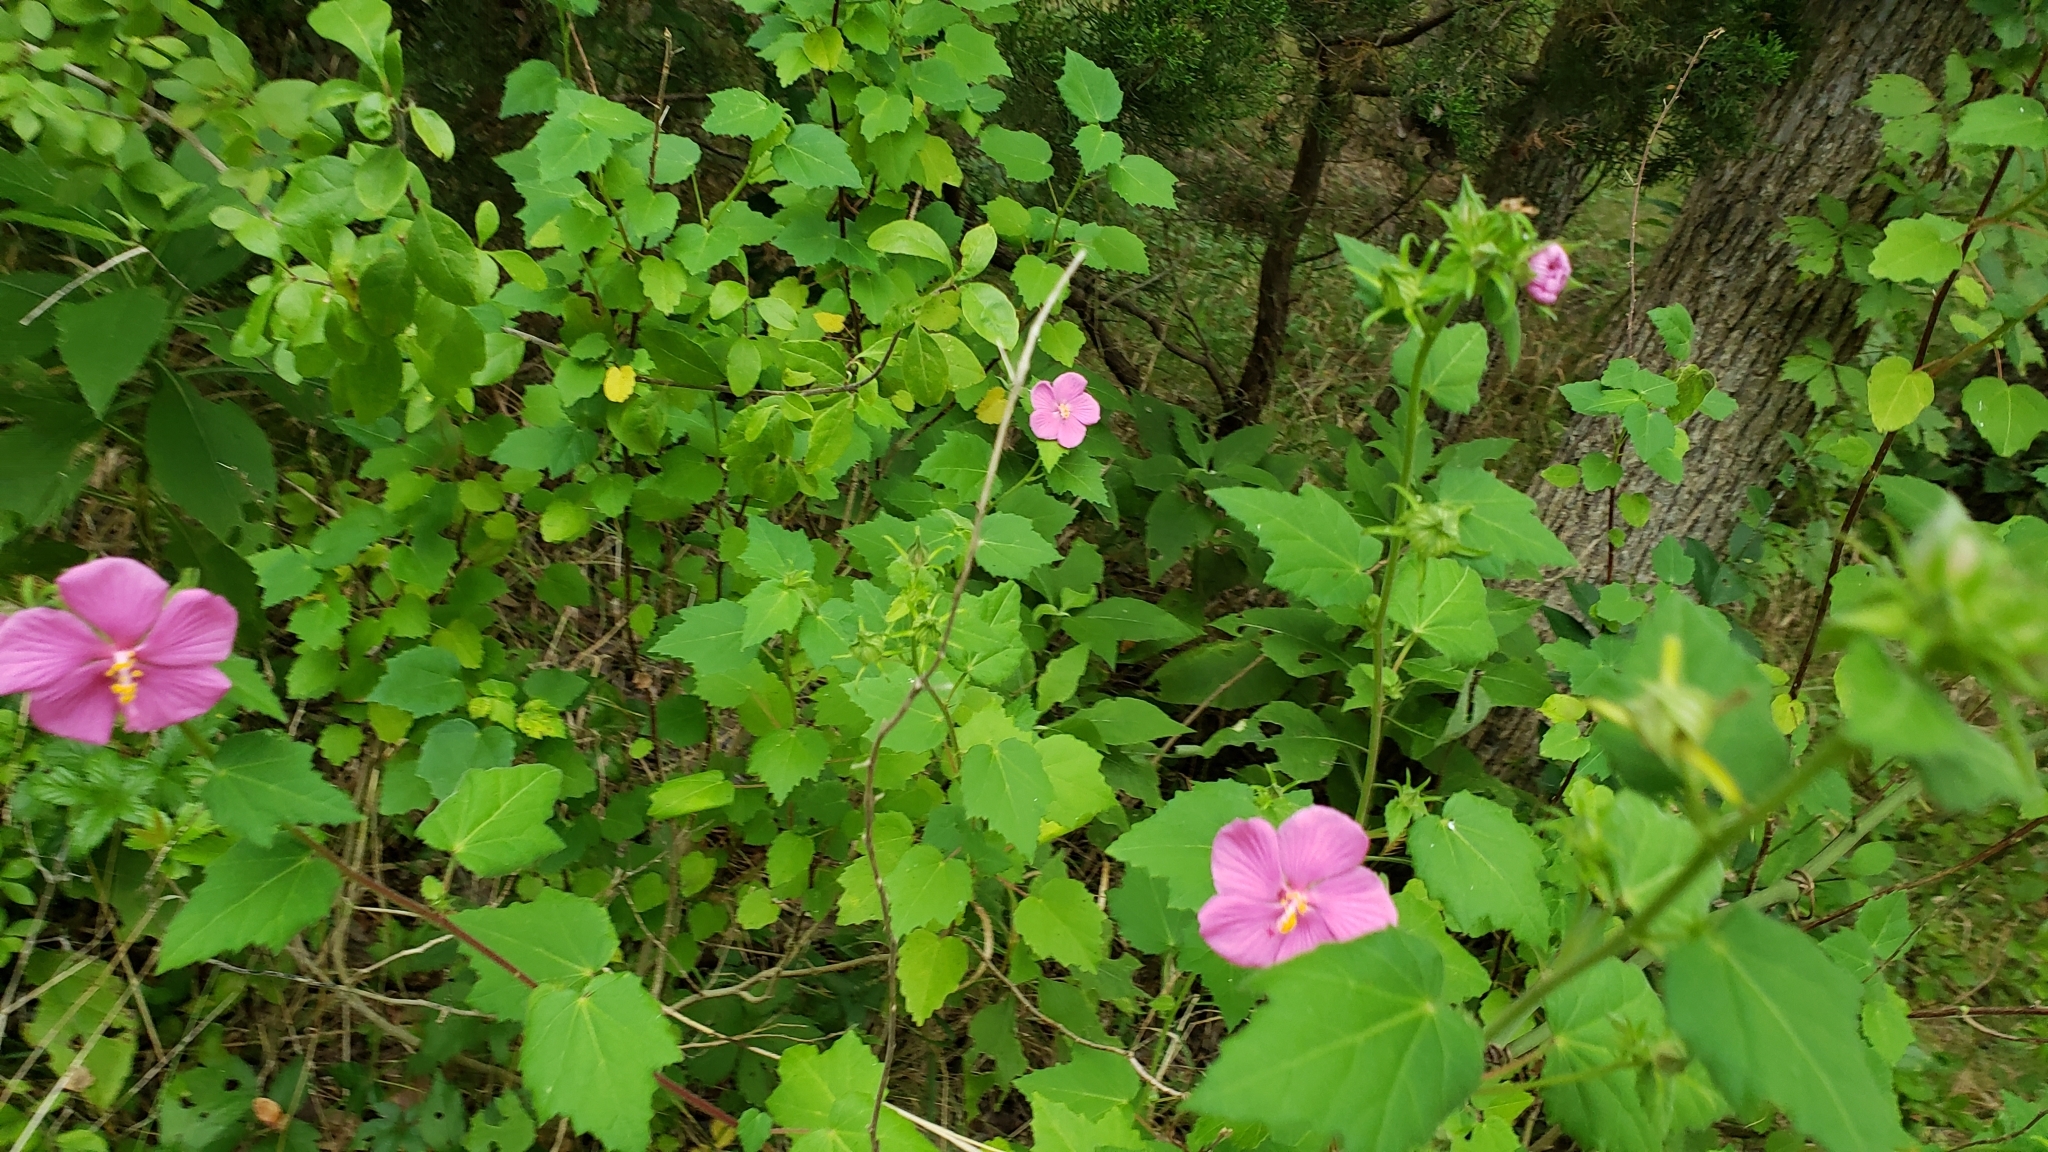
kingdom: Plantae
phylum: Tracheophyta
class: Magnoliopsida
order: Malvales
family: Malvaceae
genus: Pavonia
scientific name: Pavonia lasiopetala
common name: Texas swamp-mallow
